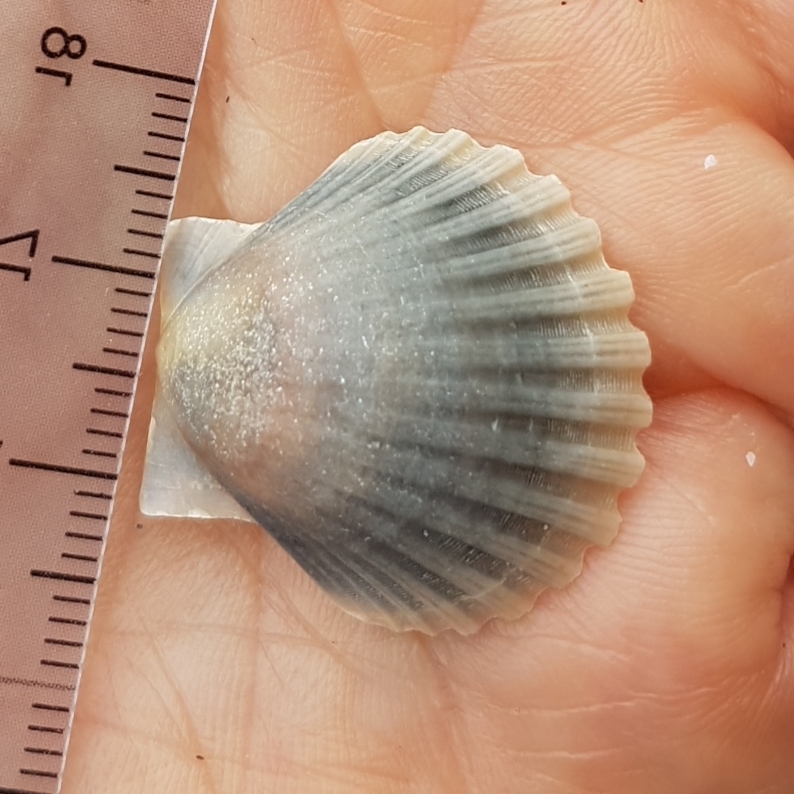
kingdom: Animalia
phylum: Mollusca
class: Bivalvia
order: Pectinida
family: Pectinidae
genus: Pecten
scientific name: Pecten jacobaeus
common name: St.james's scallop
